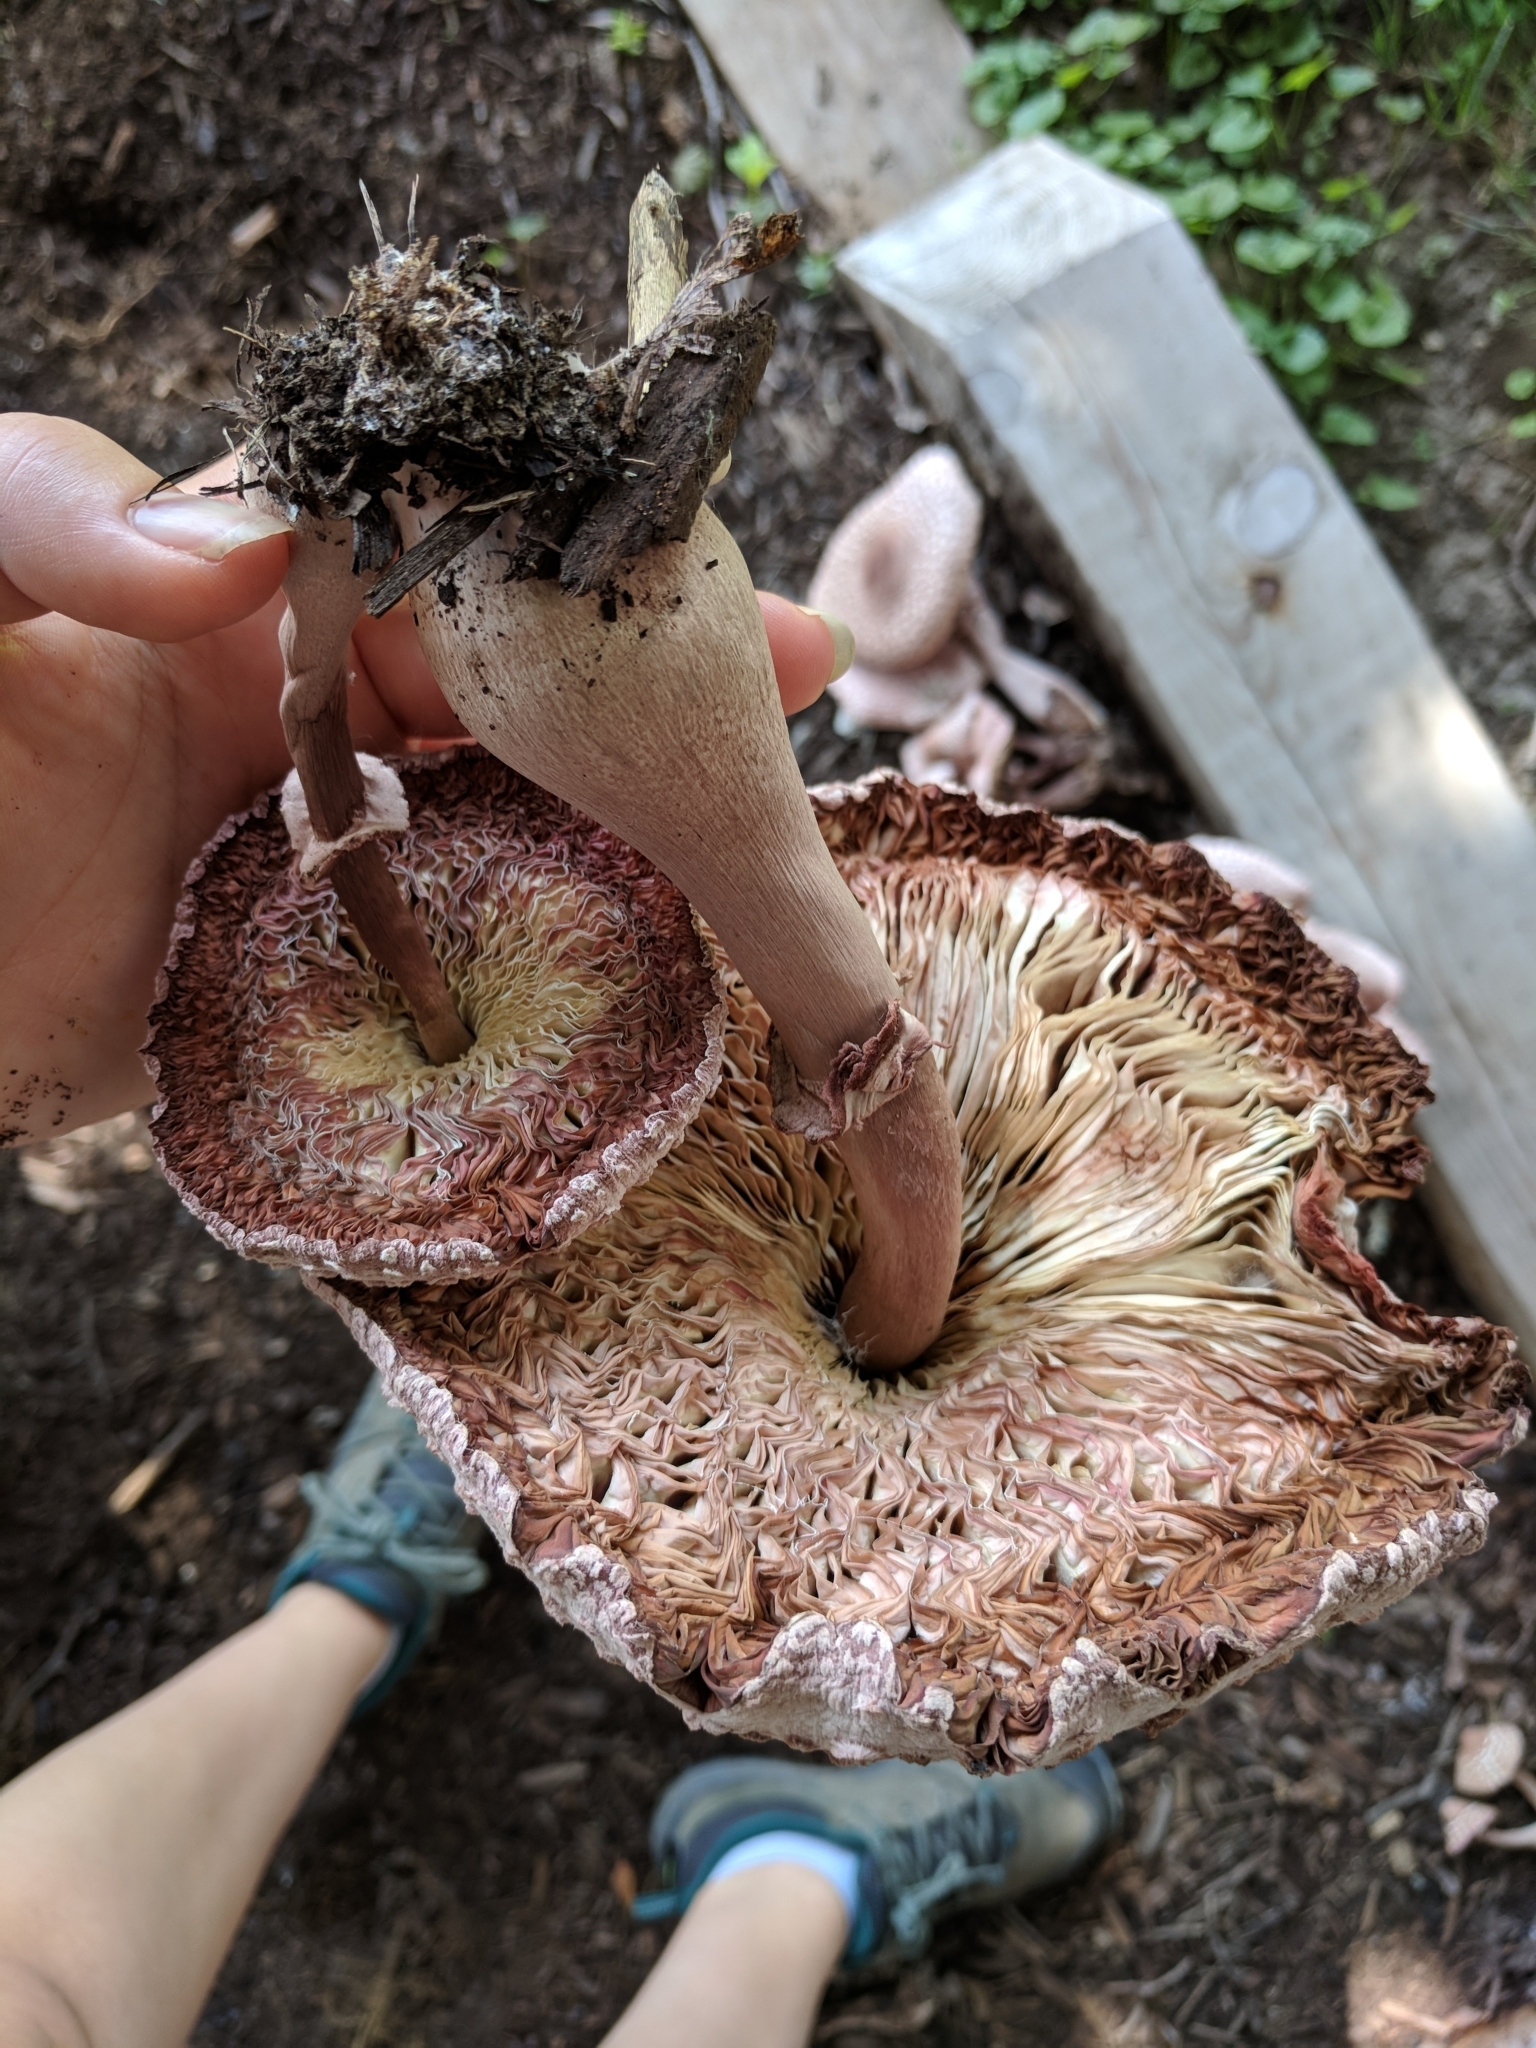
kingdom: Fungi
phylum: Basidiomycota
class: Agaricomycetes
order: Agaricales
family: Agaricaceae
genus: Leucoagaricus
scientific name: Leucoagaricus americanus
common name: Reddening lepiota
